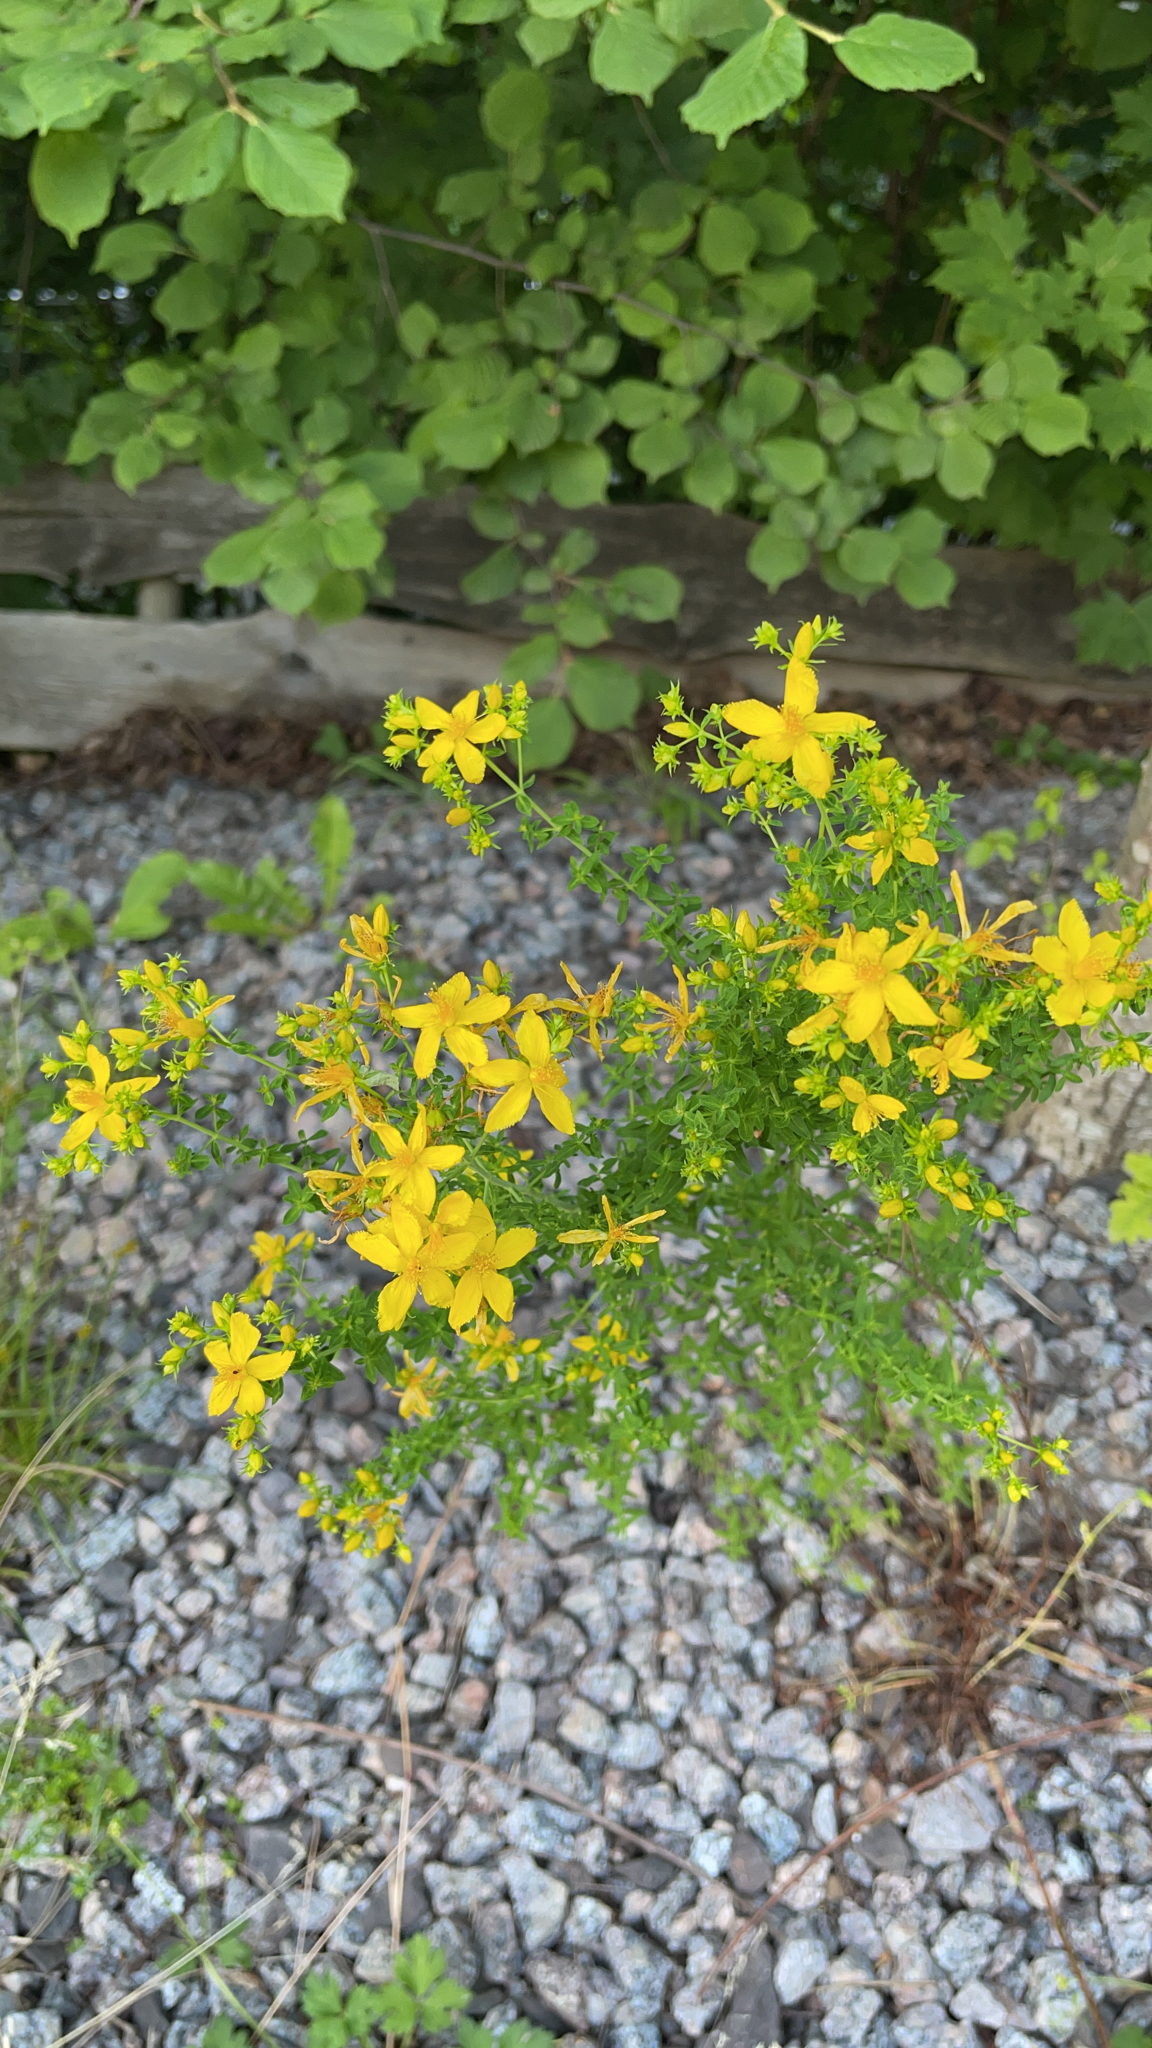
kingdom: Plantae
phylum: Tracheophyta
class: Magnoliopsida
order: Malpighiales
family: Hypericaceae
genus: Hypericum
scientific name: Hypericum perforatum
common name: Common st. johnswort
